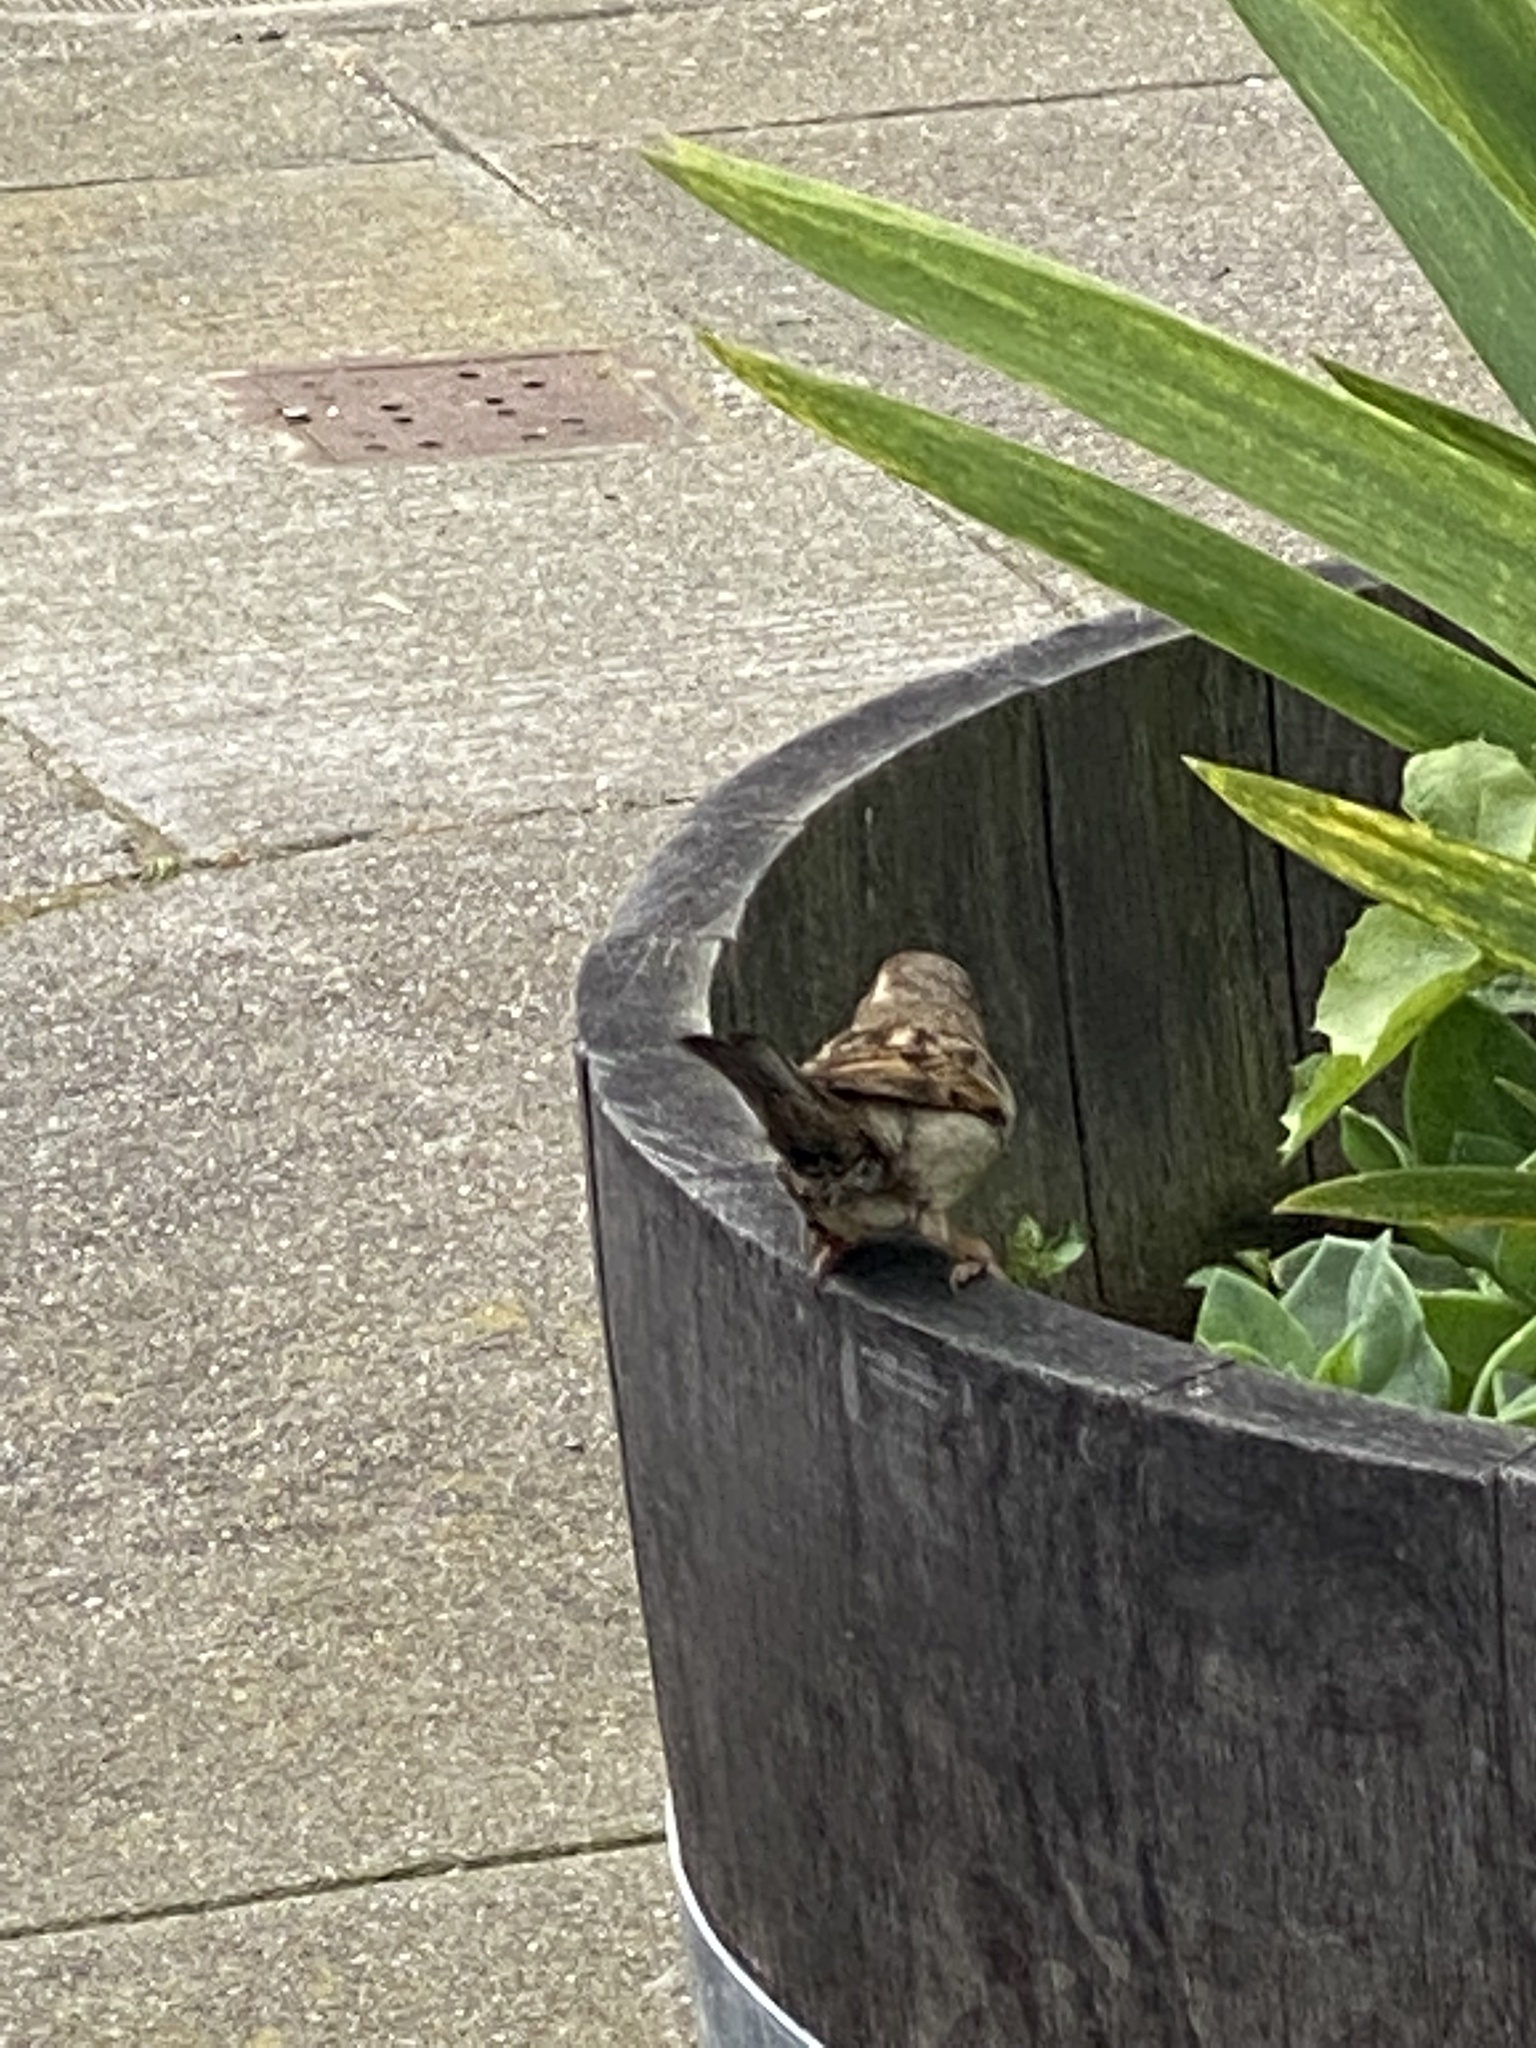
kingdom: Animalia
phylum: Chordata
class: Aves
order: Passeriformes
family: Passeridae
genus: Passer
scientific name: Passer domesticus
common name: House sparrow
